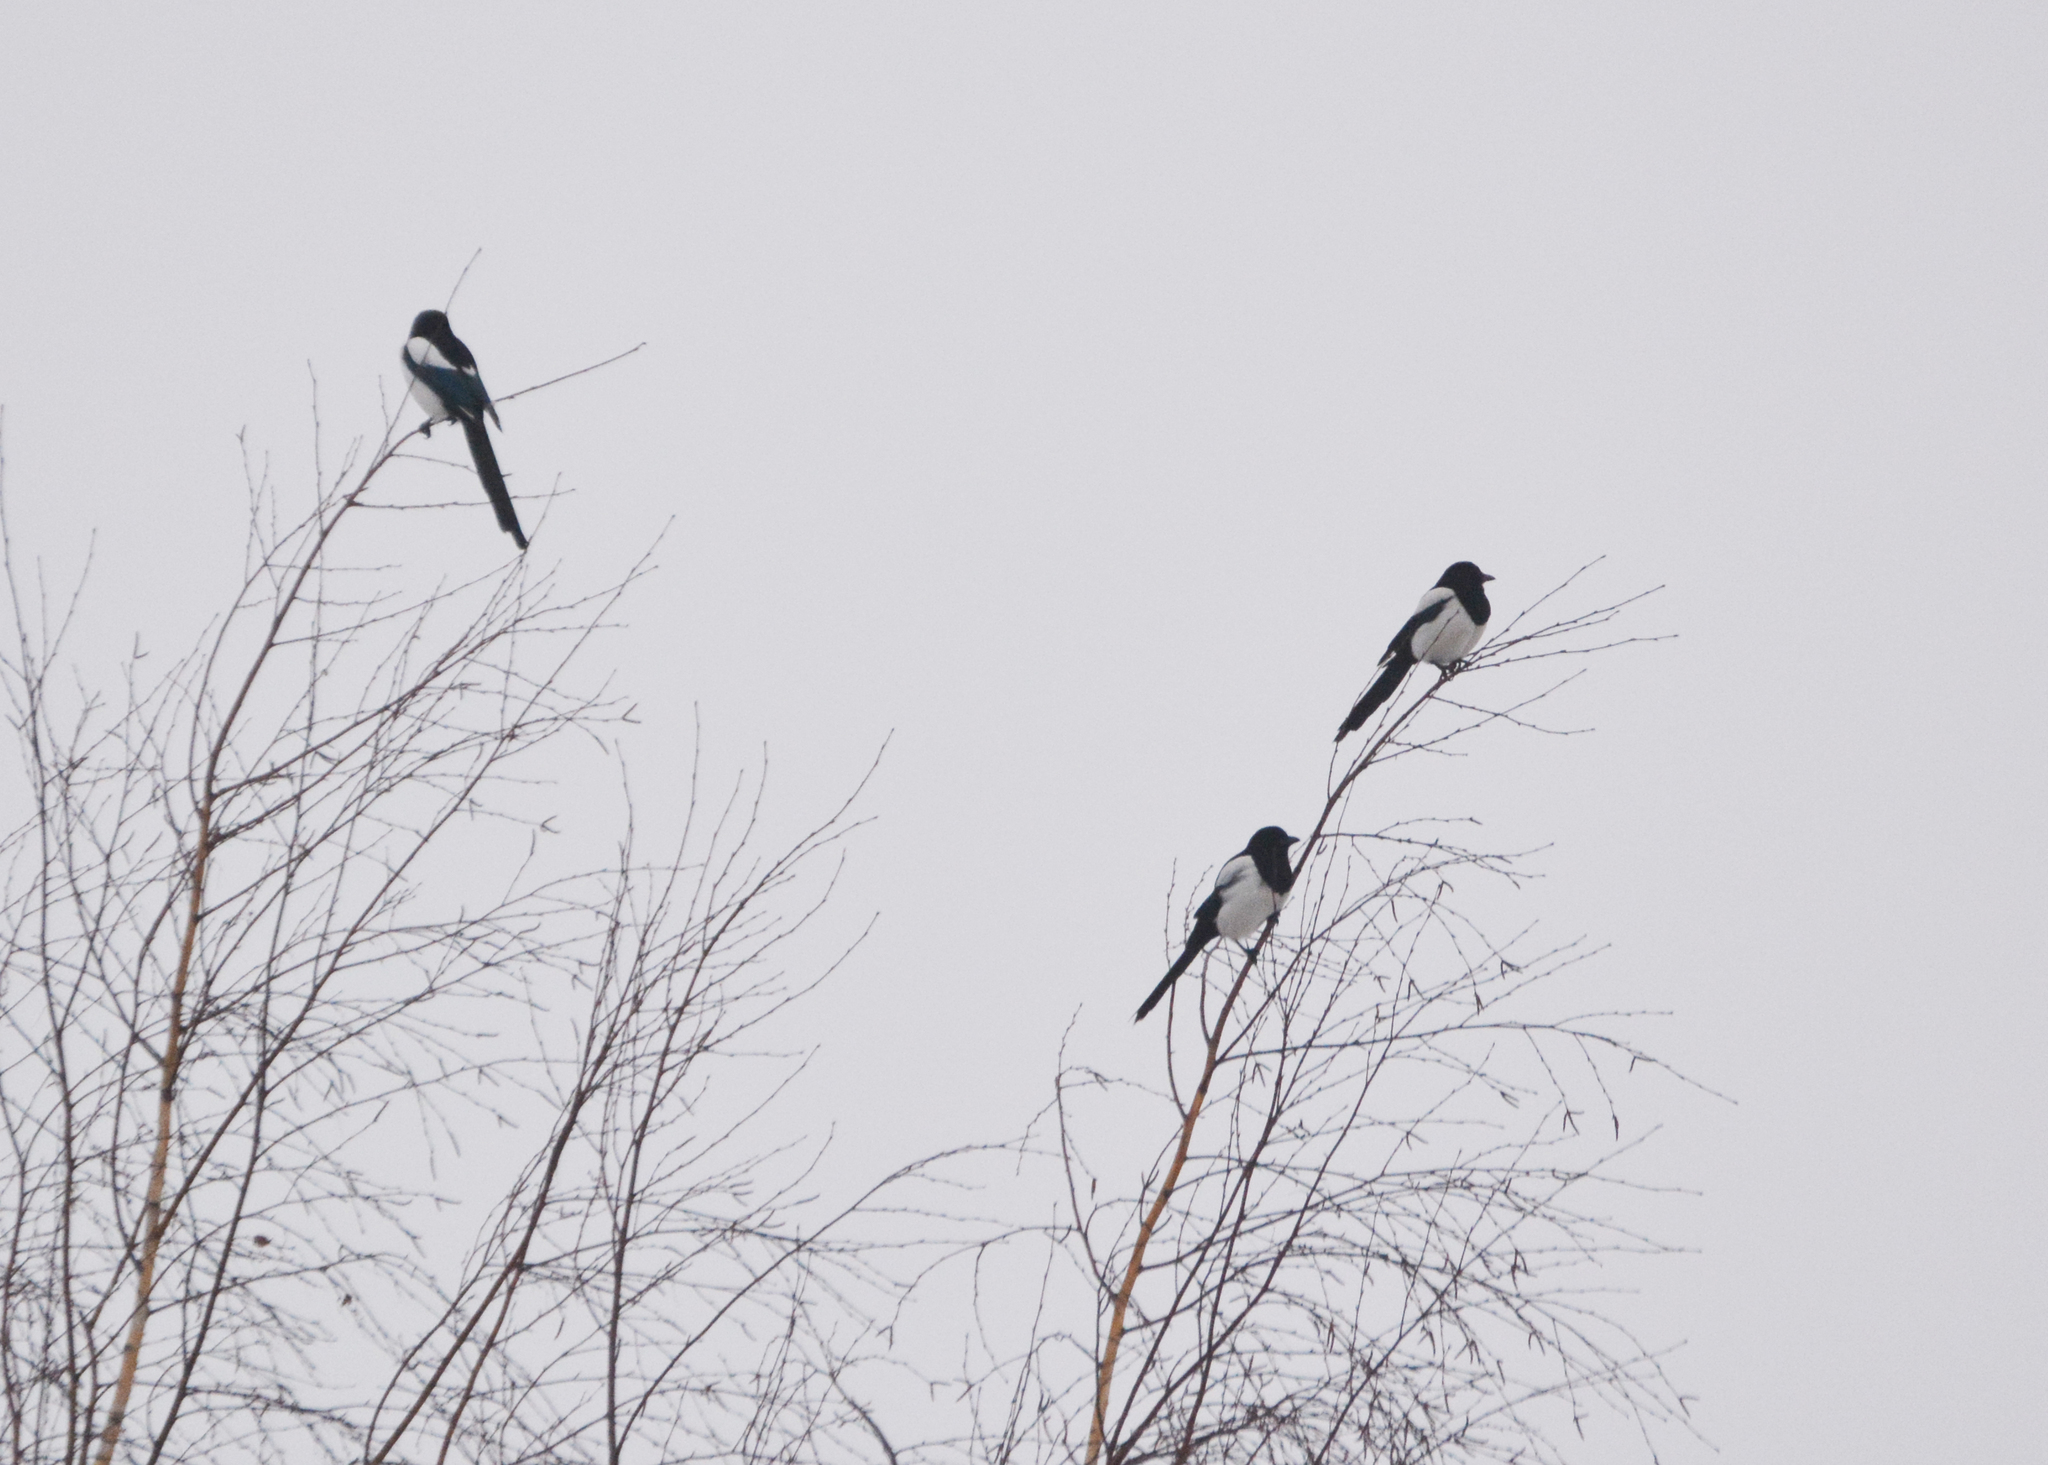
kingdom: Animalia
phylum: Chordata
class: Aves
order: Passeriformes
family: Corvidae
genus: Pica
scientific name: Pica pica
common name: Eurasian magpie
